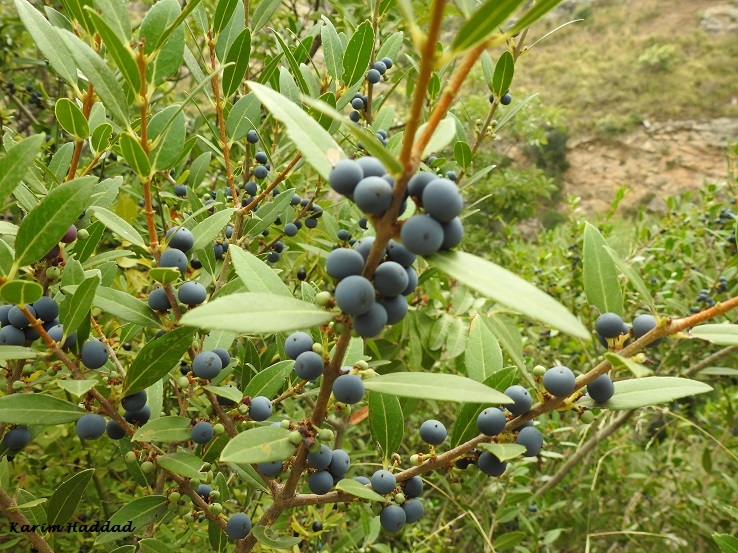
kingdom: Plantae
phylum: Tracheophyta
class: Magnoliopsida
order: Lamiales
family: Oleaceae
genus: Phillyrea
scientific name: Phillyrea latifolia
